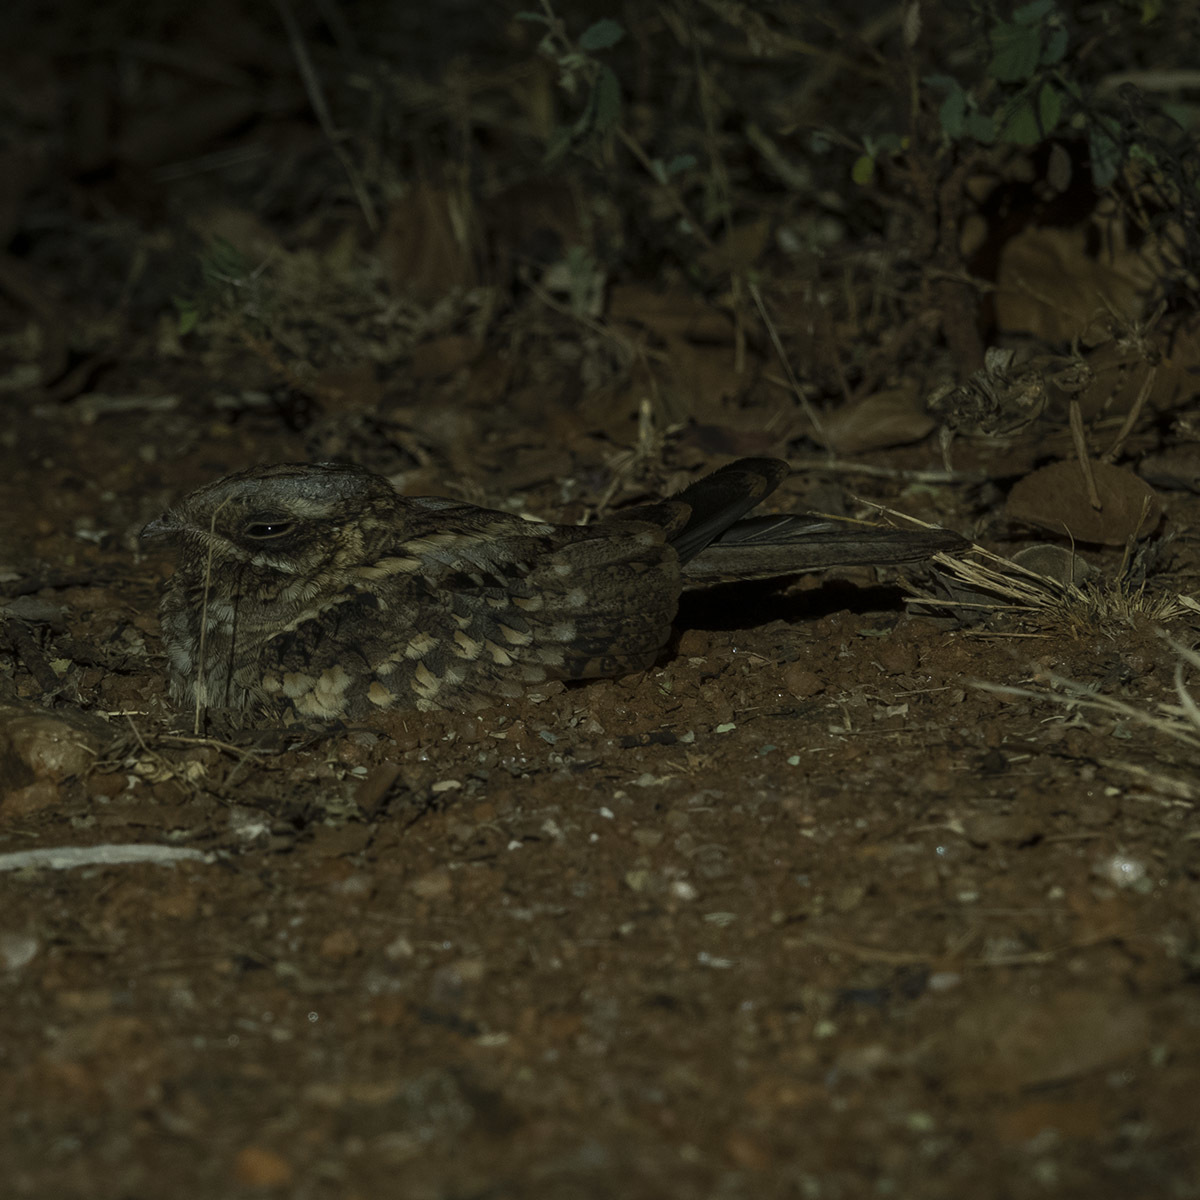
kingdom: Animalia
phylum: Chordata
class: Aves
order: Caprimulgiformes
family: Caprimulgidae
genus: Caprimulgus
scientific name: Caprimulgus asiaticus
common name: Indian nightjar
